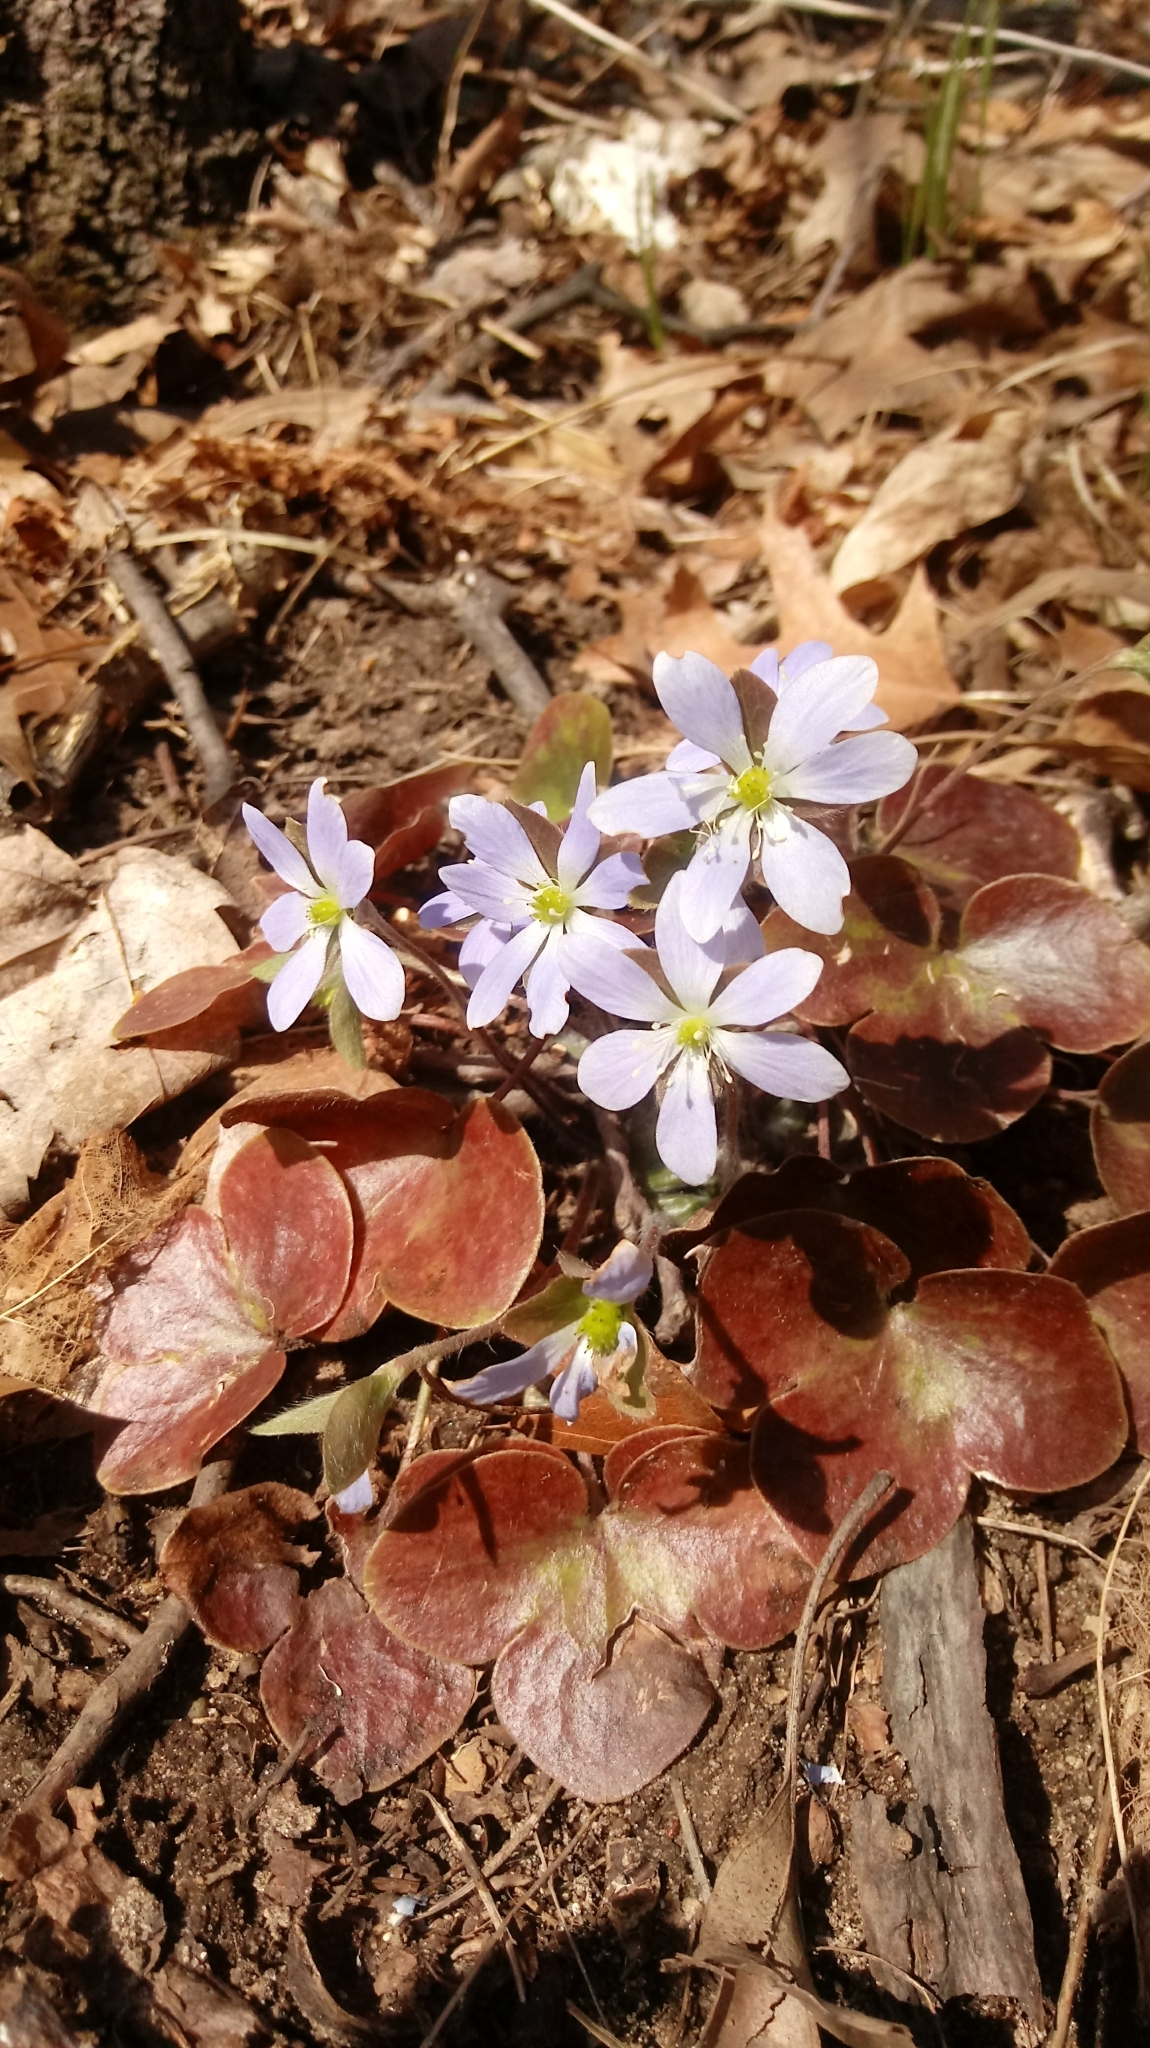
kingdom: Plantae
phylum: Tracheophyta
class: Magnoliopsida
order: Ranunculales
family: Ranunculaceae
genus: Hepatica
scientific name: Hepatica americana
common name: American hepatica
